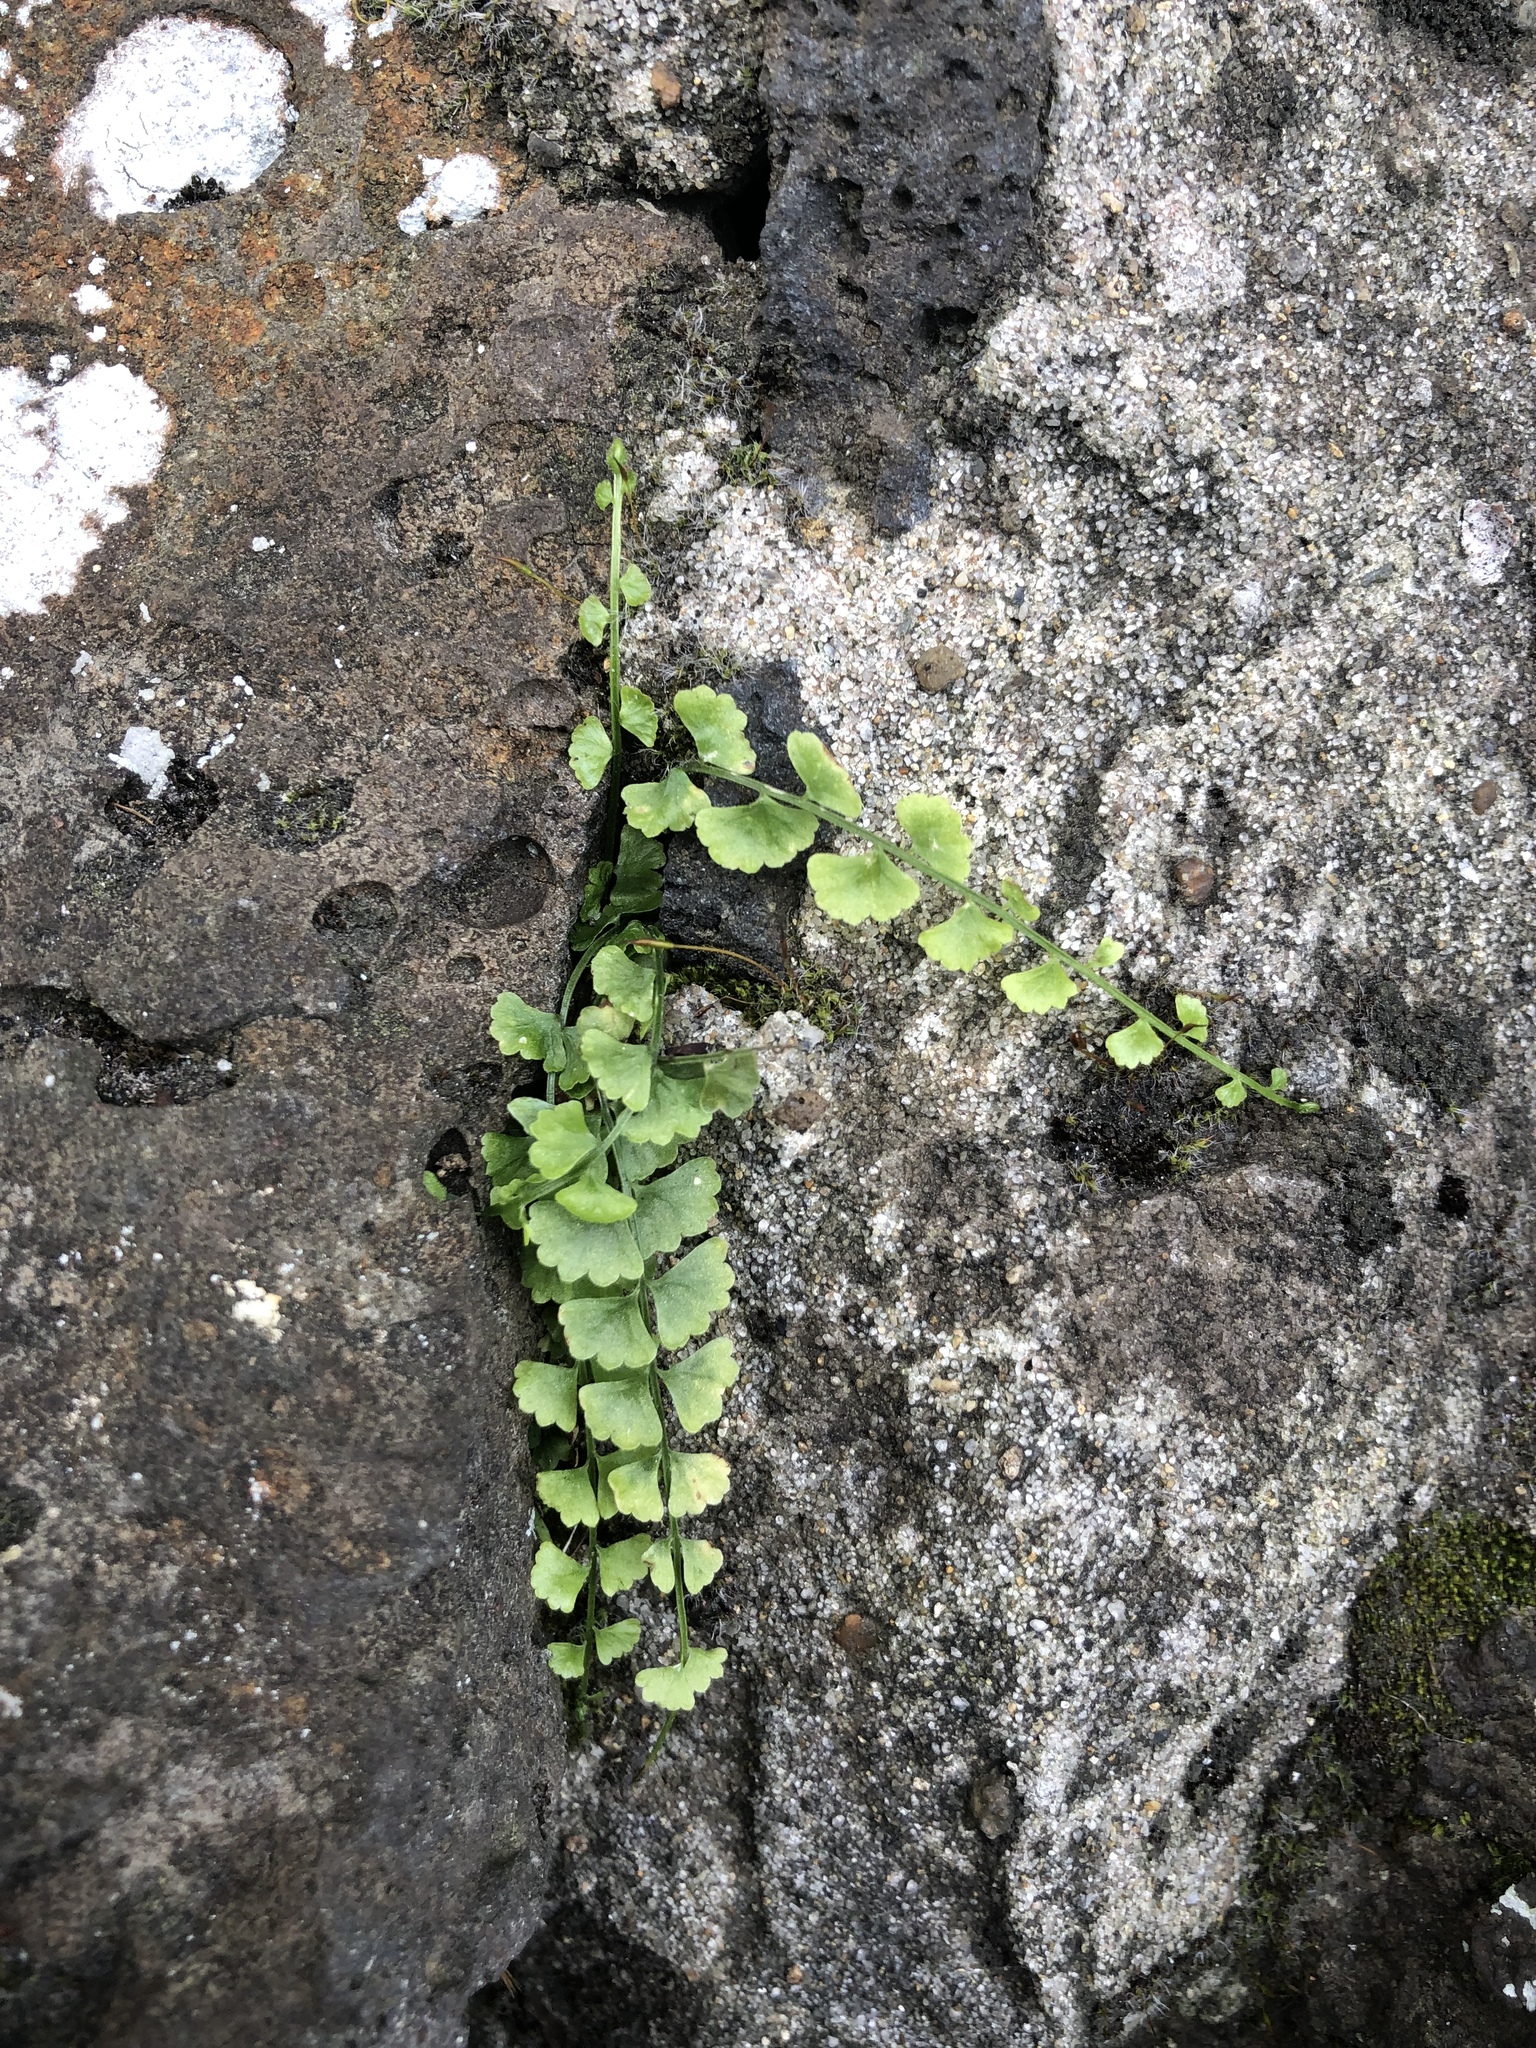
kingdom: Plantae
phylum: Tracheophyta
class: Polypodiopsida
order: Polypodiales
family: Aspleniaceae
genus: Asplenium
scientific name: Asplenium flabellifolium
